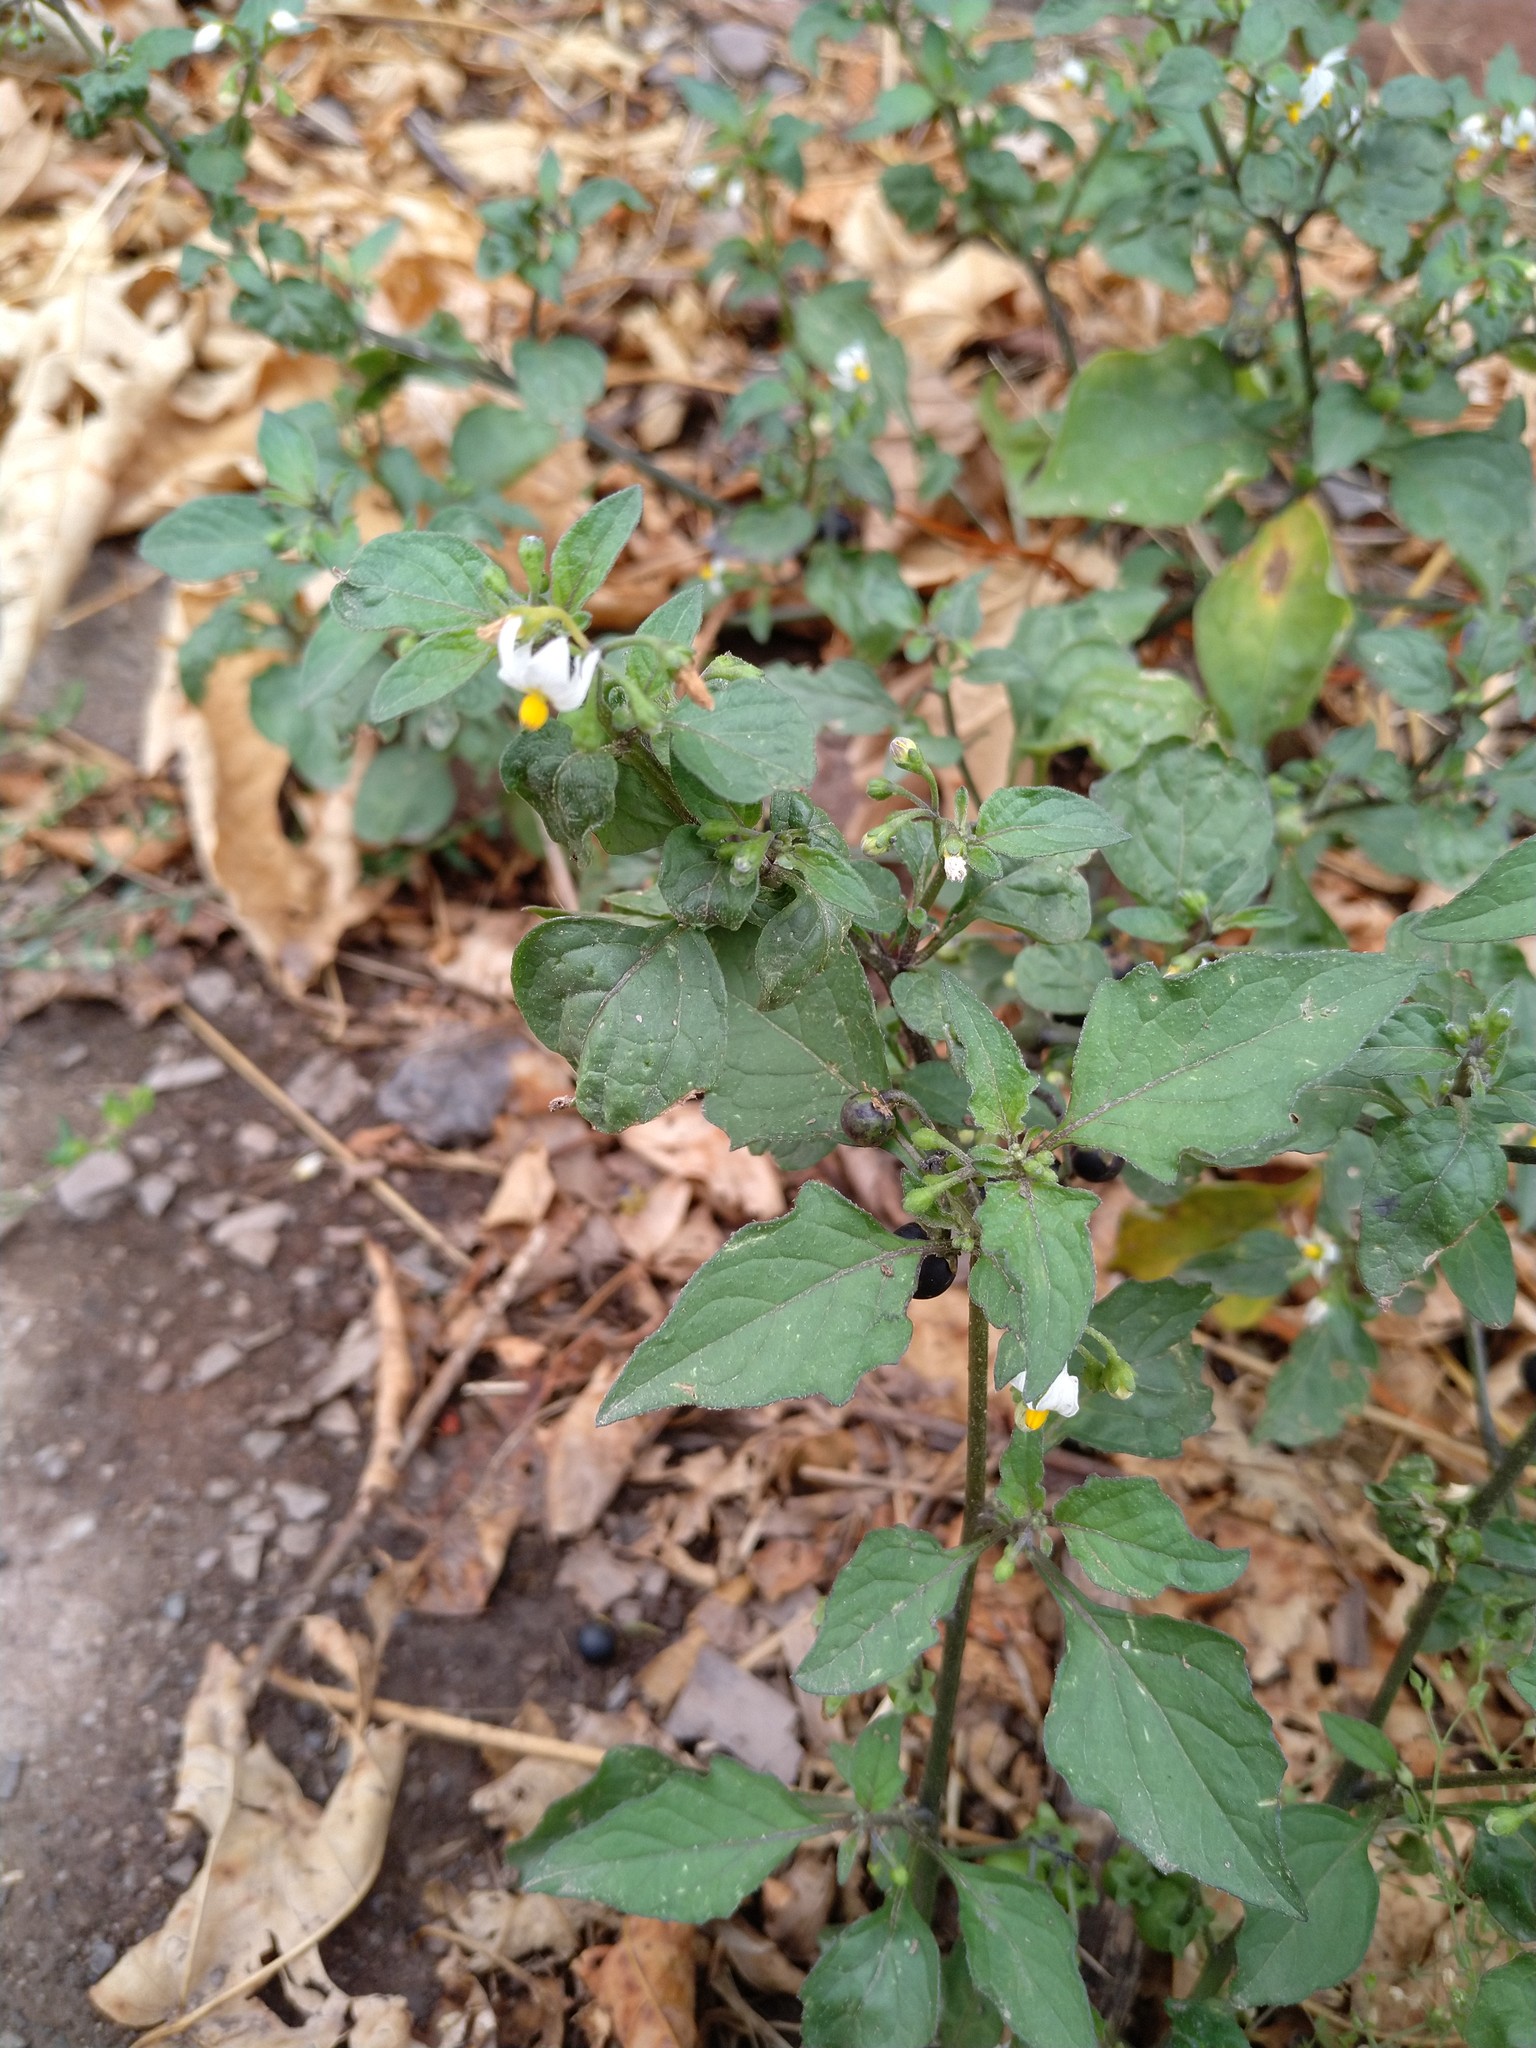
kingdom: Plantae
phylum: Tracheophyta
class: Magnoliopsida
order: Solanales
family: Solanaceae
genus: Solanum
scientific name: Solanum nigrum
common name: Black nightshade
